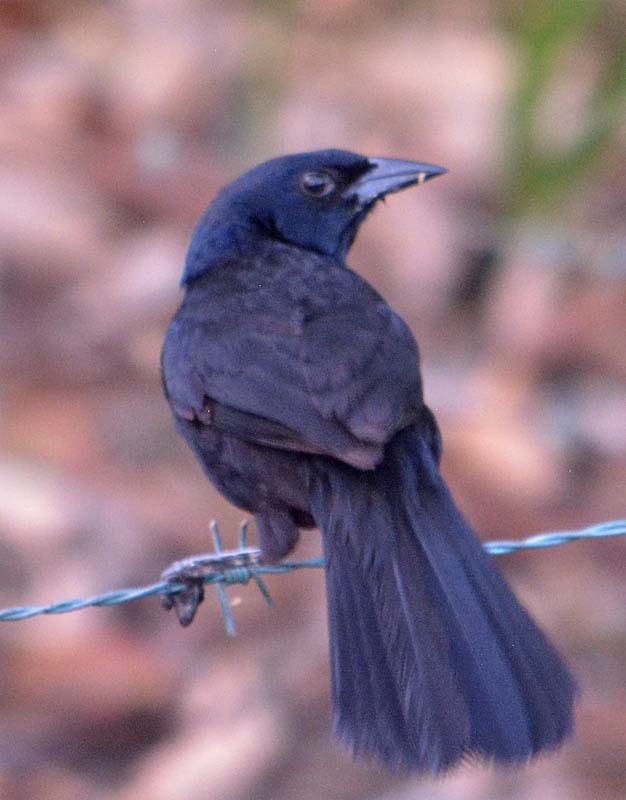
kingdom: Animalia
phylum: Chordata
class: Aves
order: Passeriformes
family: Icteridae
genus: Dives
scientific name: Dives dives
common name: Melodious blackbird
